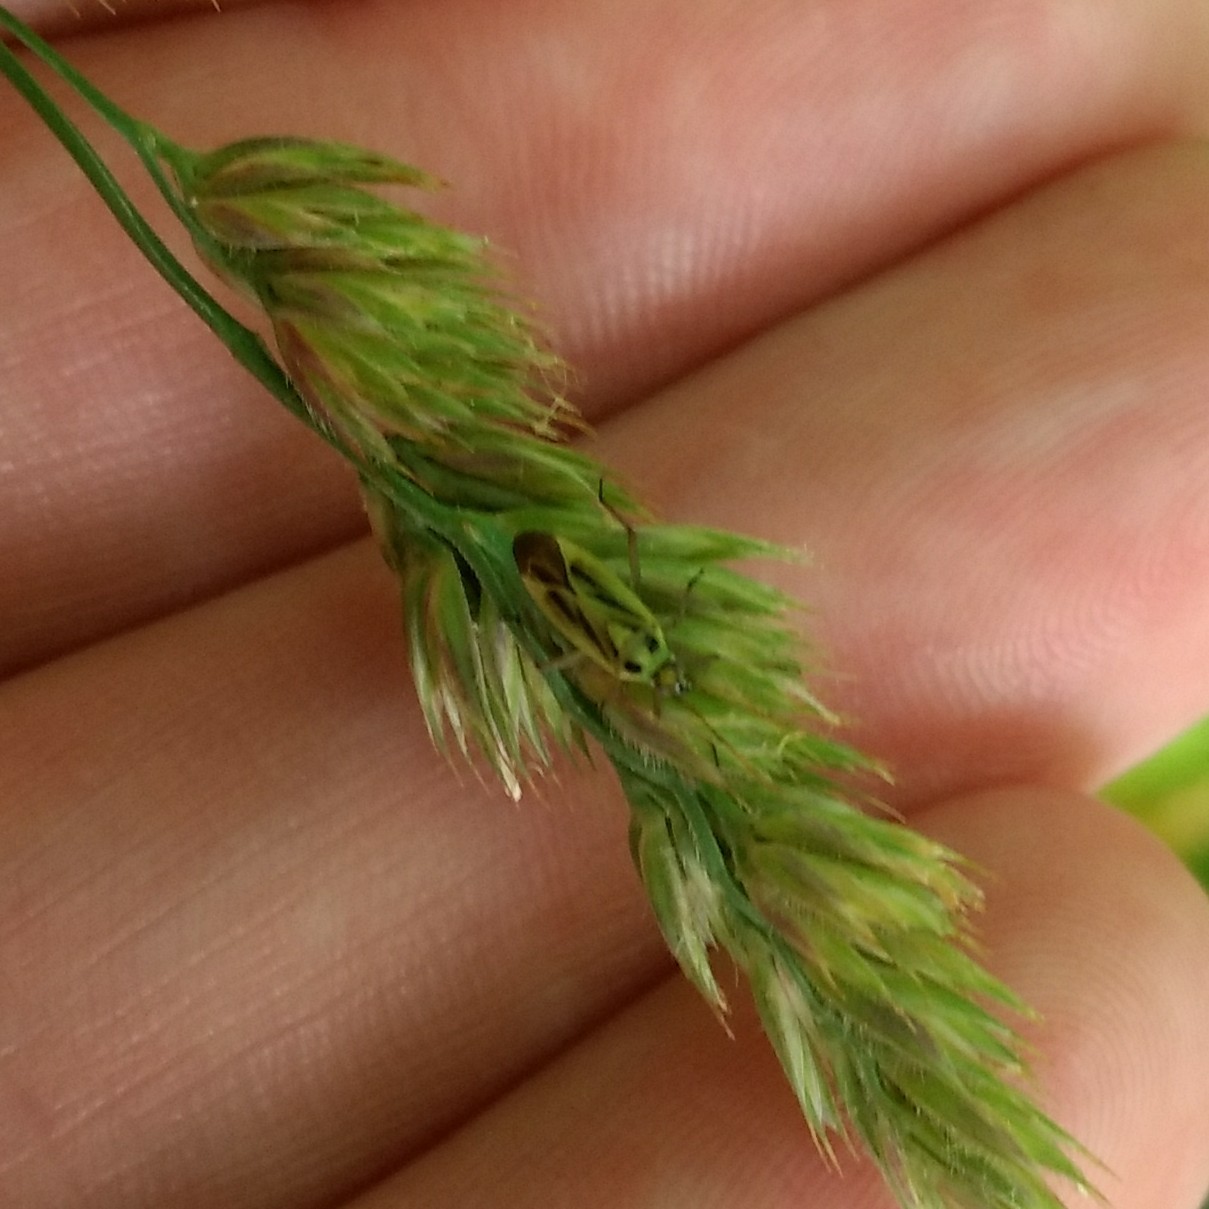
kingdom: Animalia
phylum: Arthropoda
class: Insecta
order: Hemiptera
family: Miridae
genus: Stenotus
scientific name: Stenotus binotatus
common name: Plant bug
